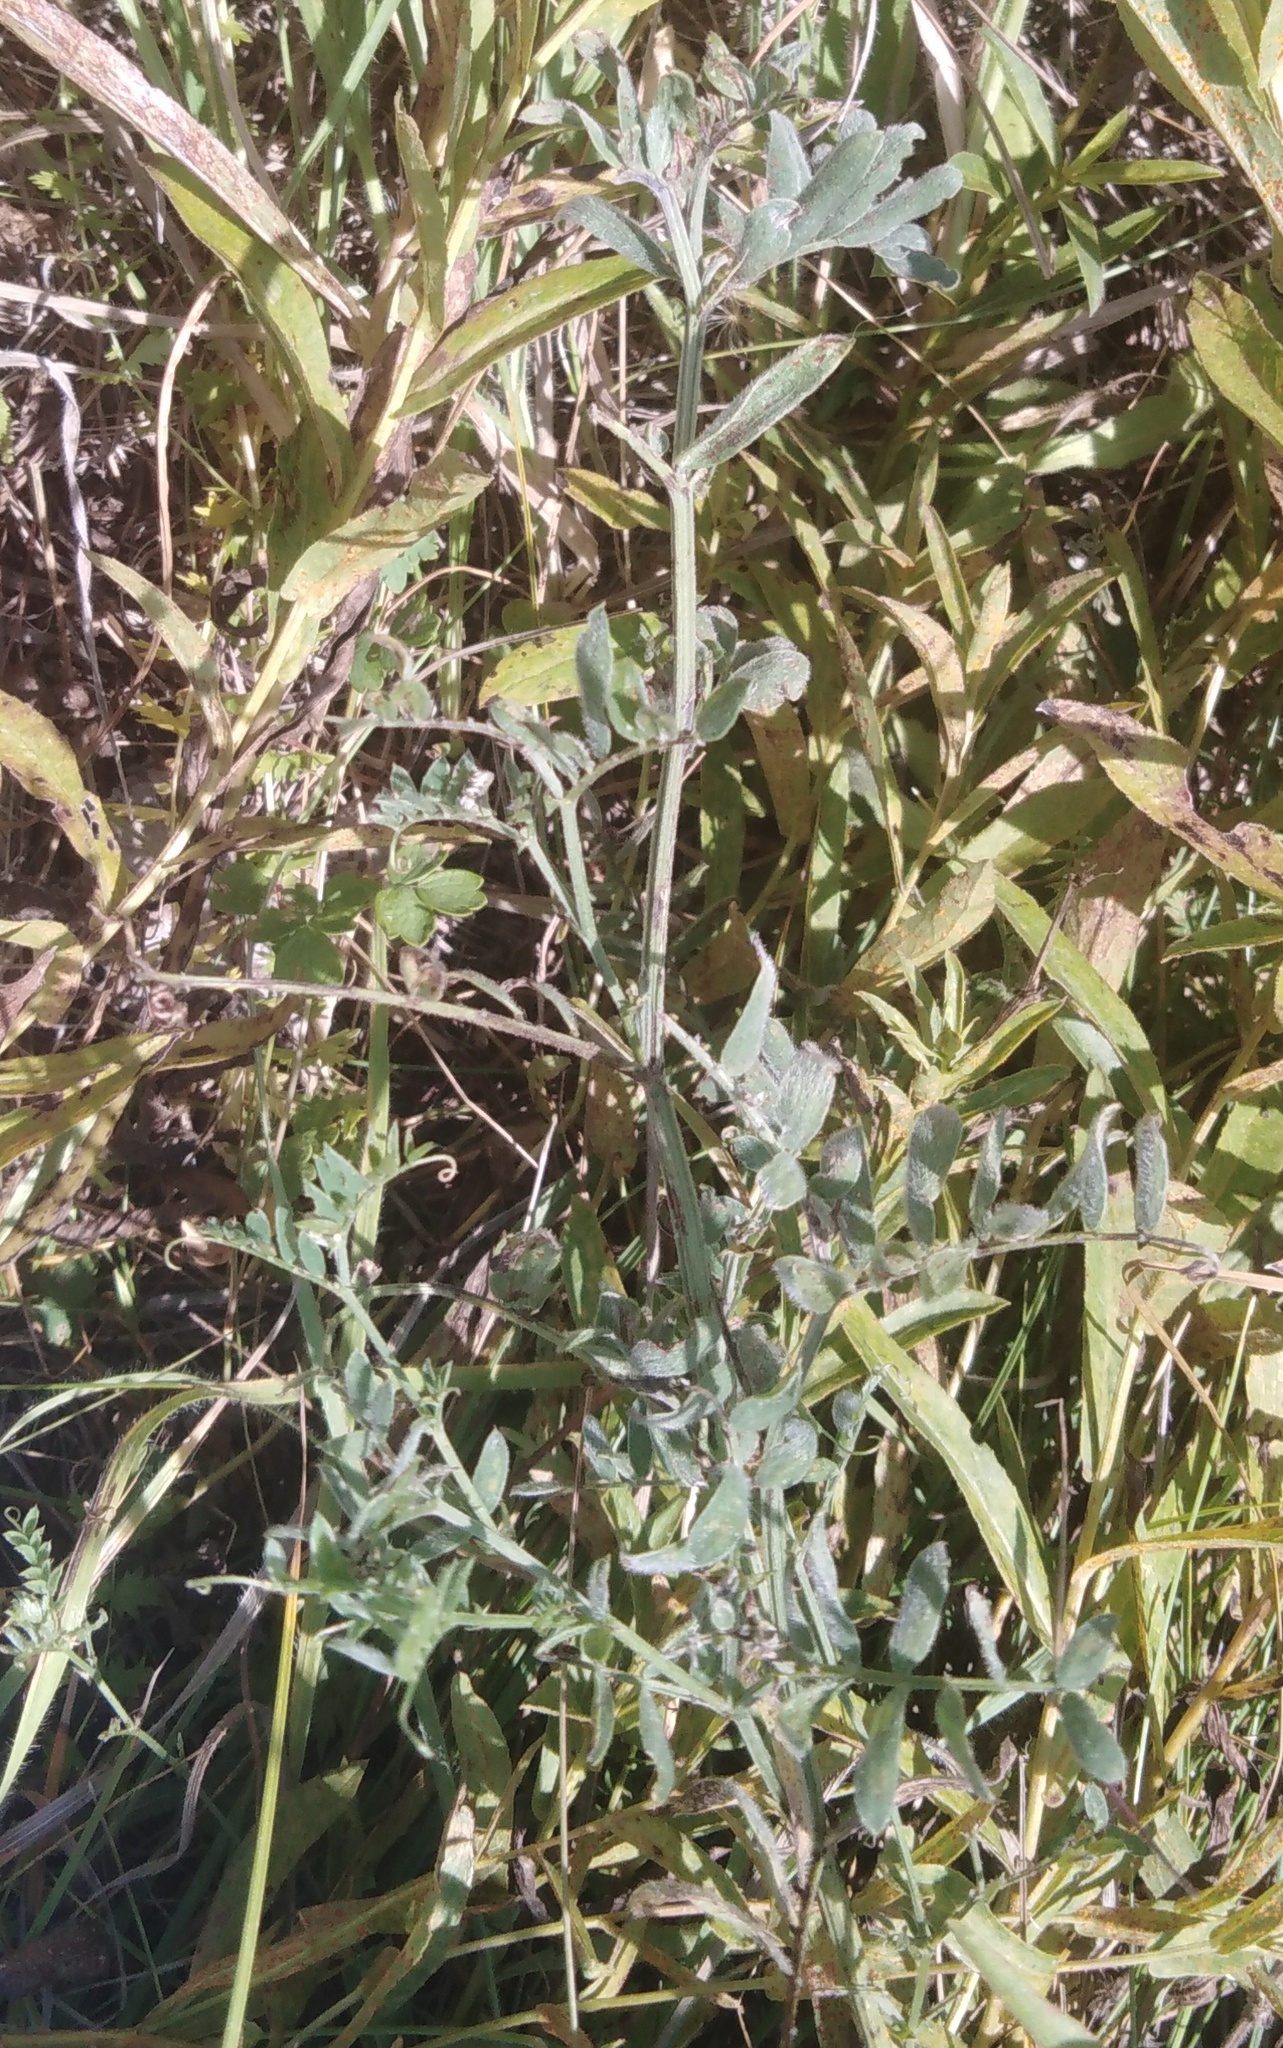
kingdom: Plantae
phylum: Tracheophyta
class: Magnoliopsida
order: Fabales
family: Fabaceae
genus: Vicia
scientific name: Vicia cracca
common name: Bird vetch
